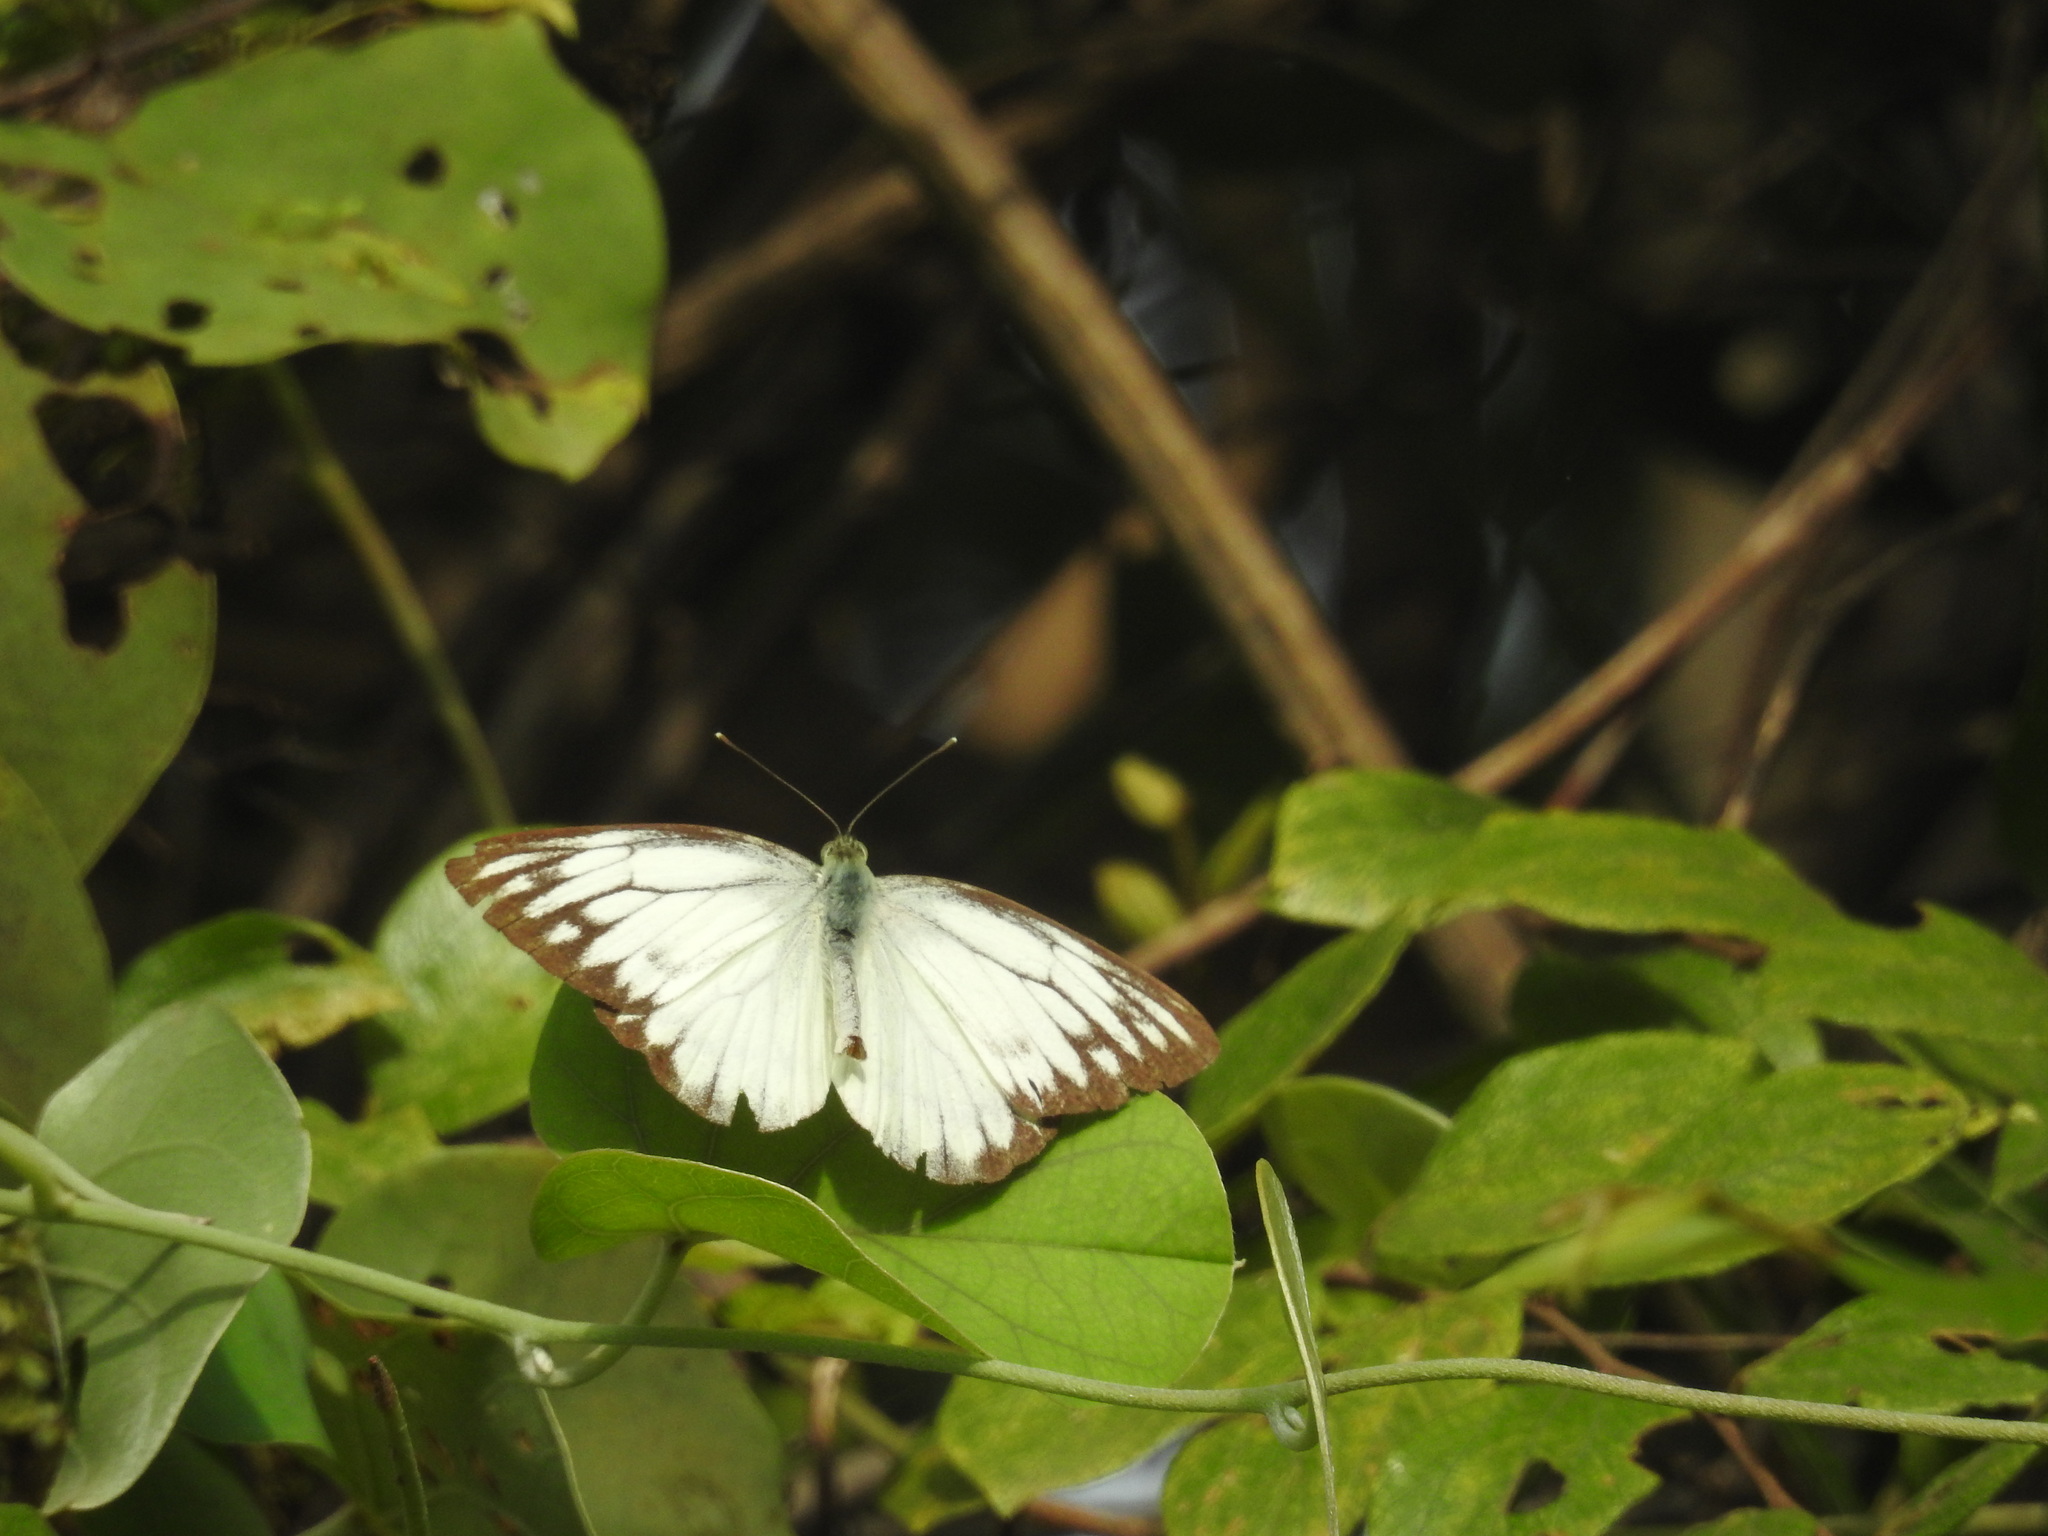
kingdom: Animalia
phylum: Arthropoda
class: Insecta
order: Lepidoptera
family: Pieridae
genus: Cepora
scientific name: Cepora nerissa
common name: Common gull
